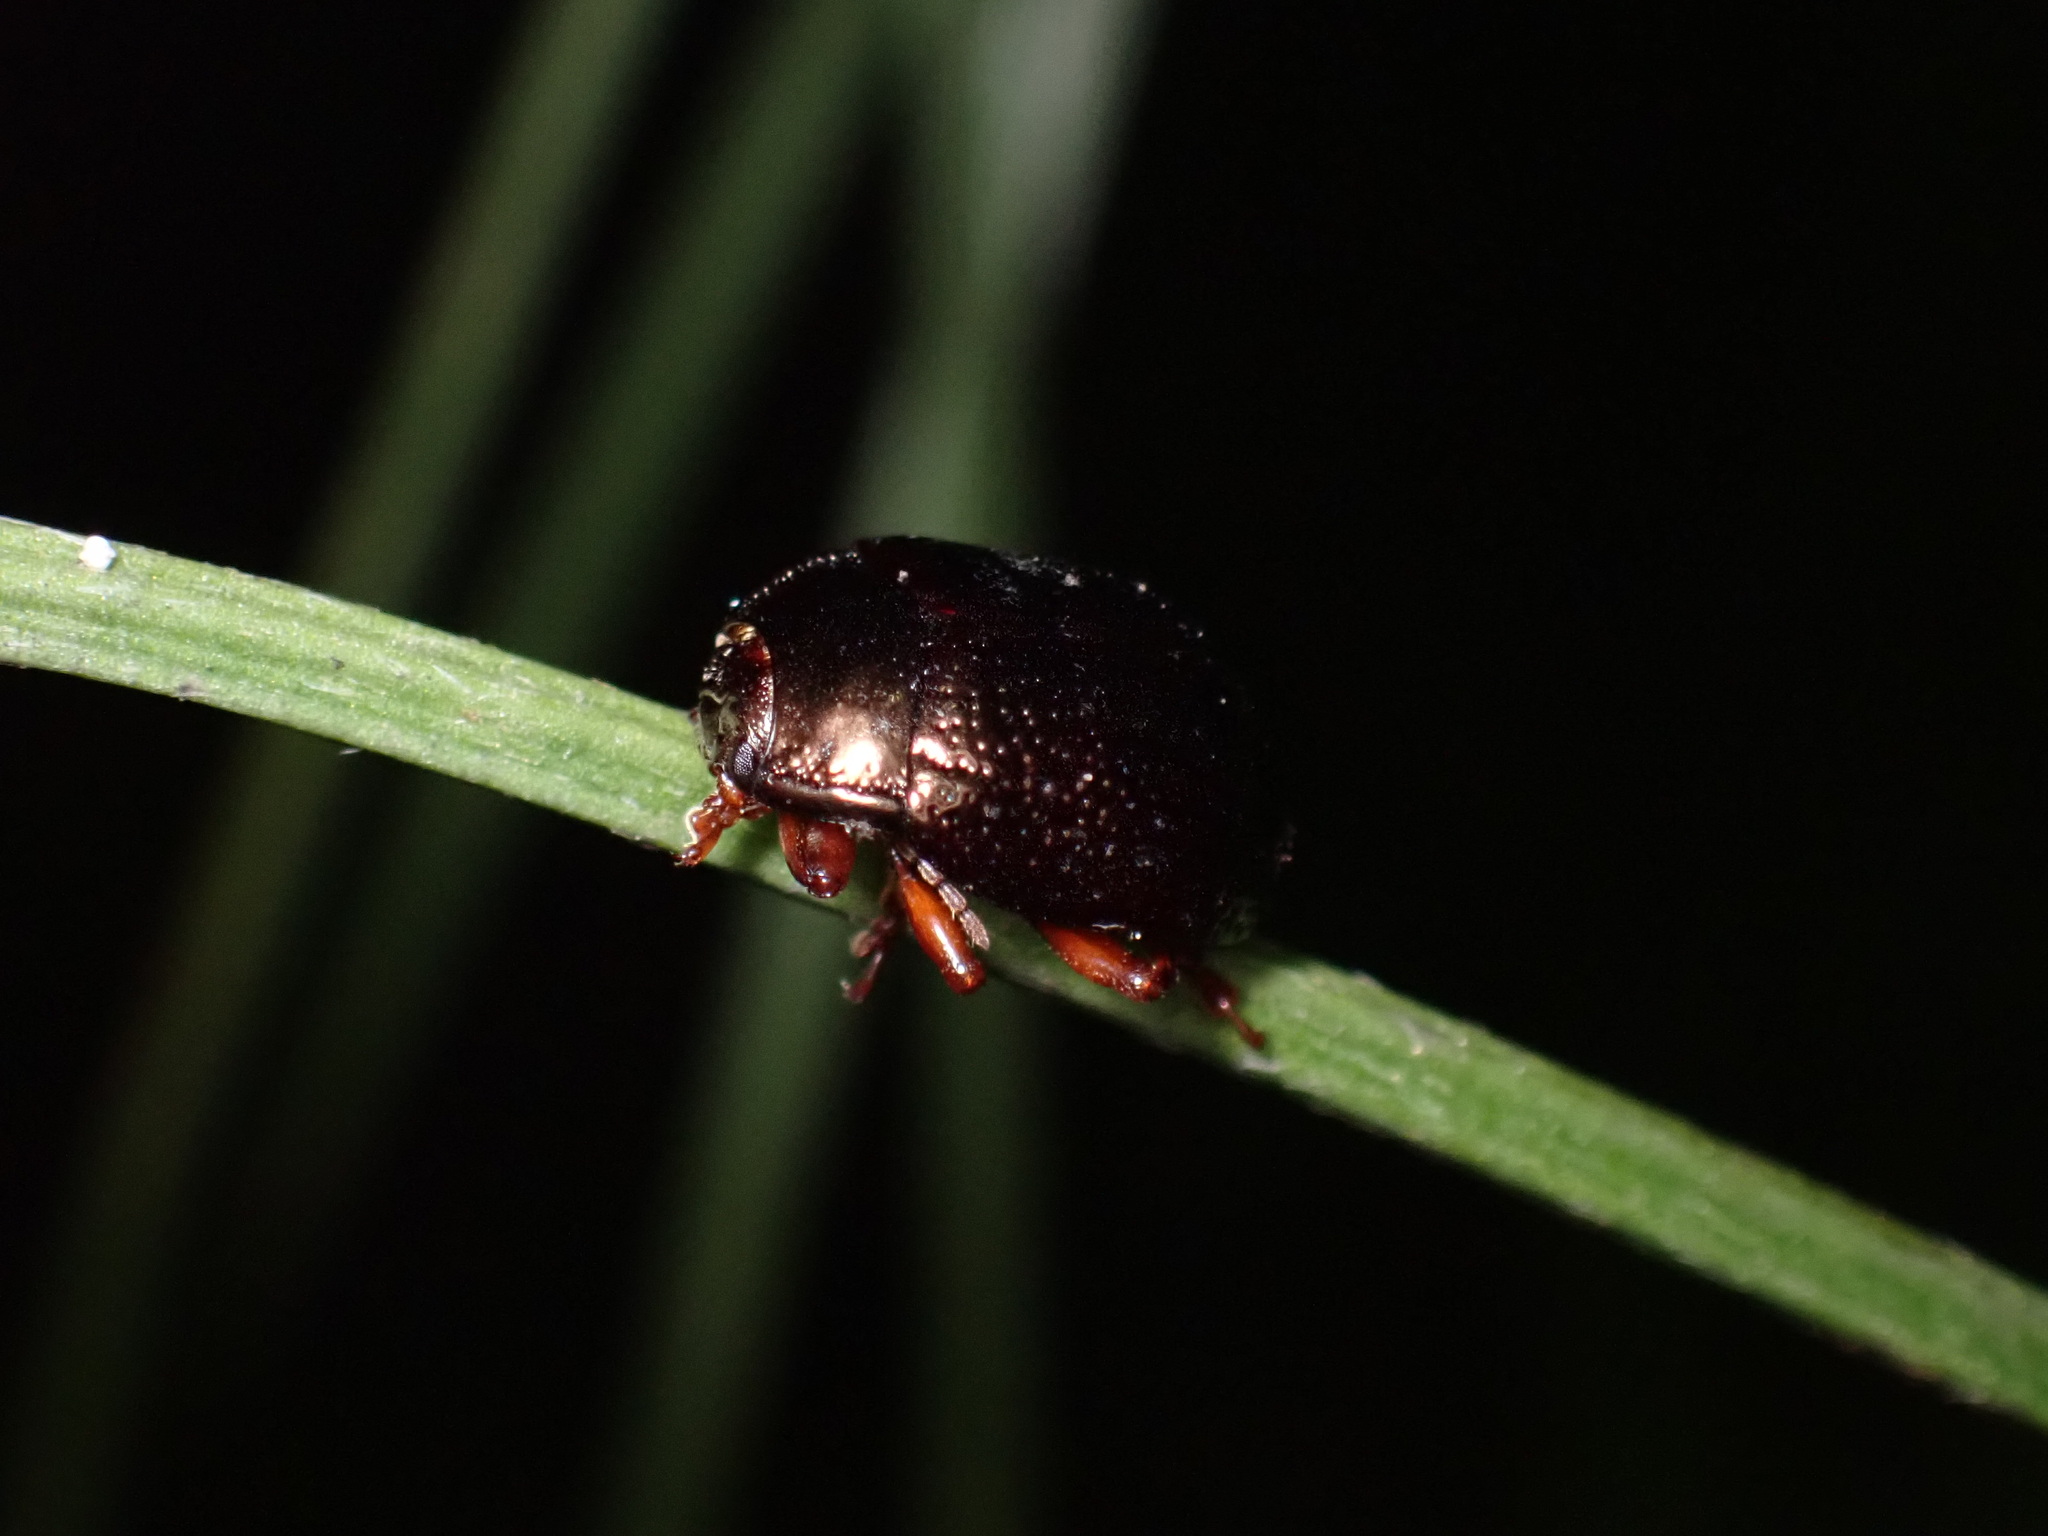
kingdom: Animalia
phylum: Arthropoda
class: Insecta
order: Coleoptera
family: Chrysomelidae
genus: Chrysolina
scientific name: Chrysolina bankii
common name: Leaf beetle
